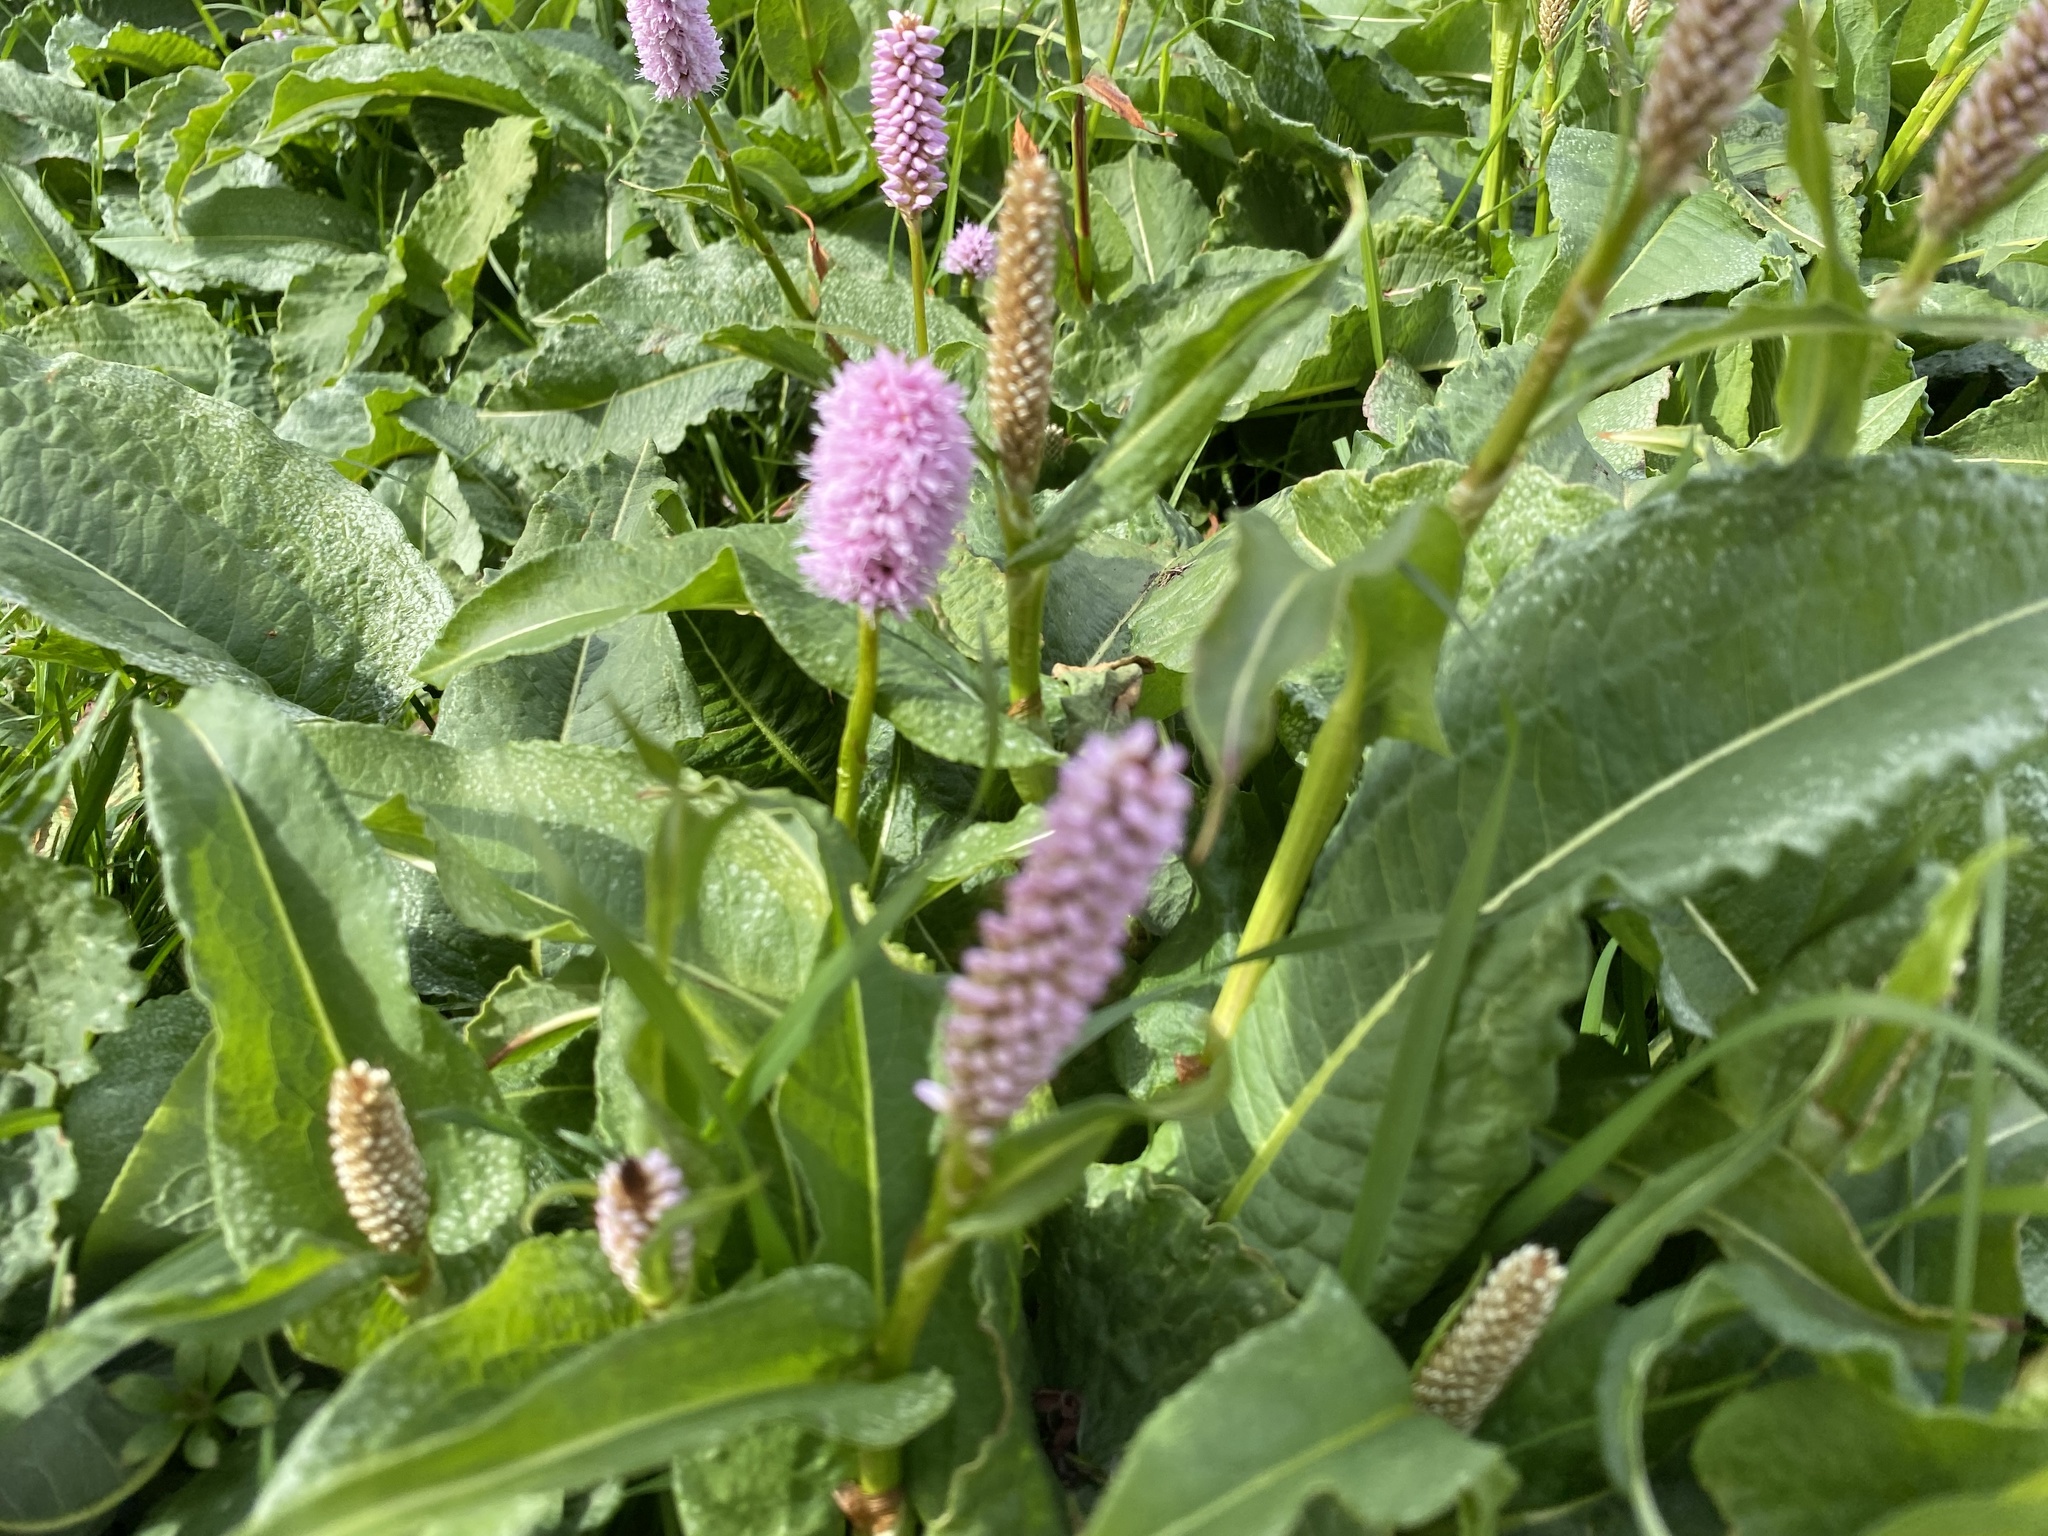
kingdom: Plantae
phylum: Tracheophyta
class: Magnoliopsida
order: Caryophyllales
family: Polygonaceae
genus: Bistorta
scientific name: Bistorta officinalis
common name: Common bistort
